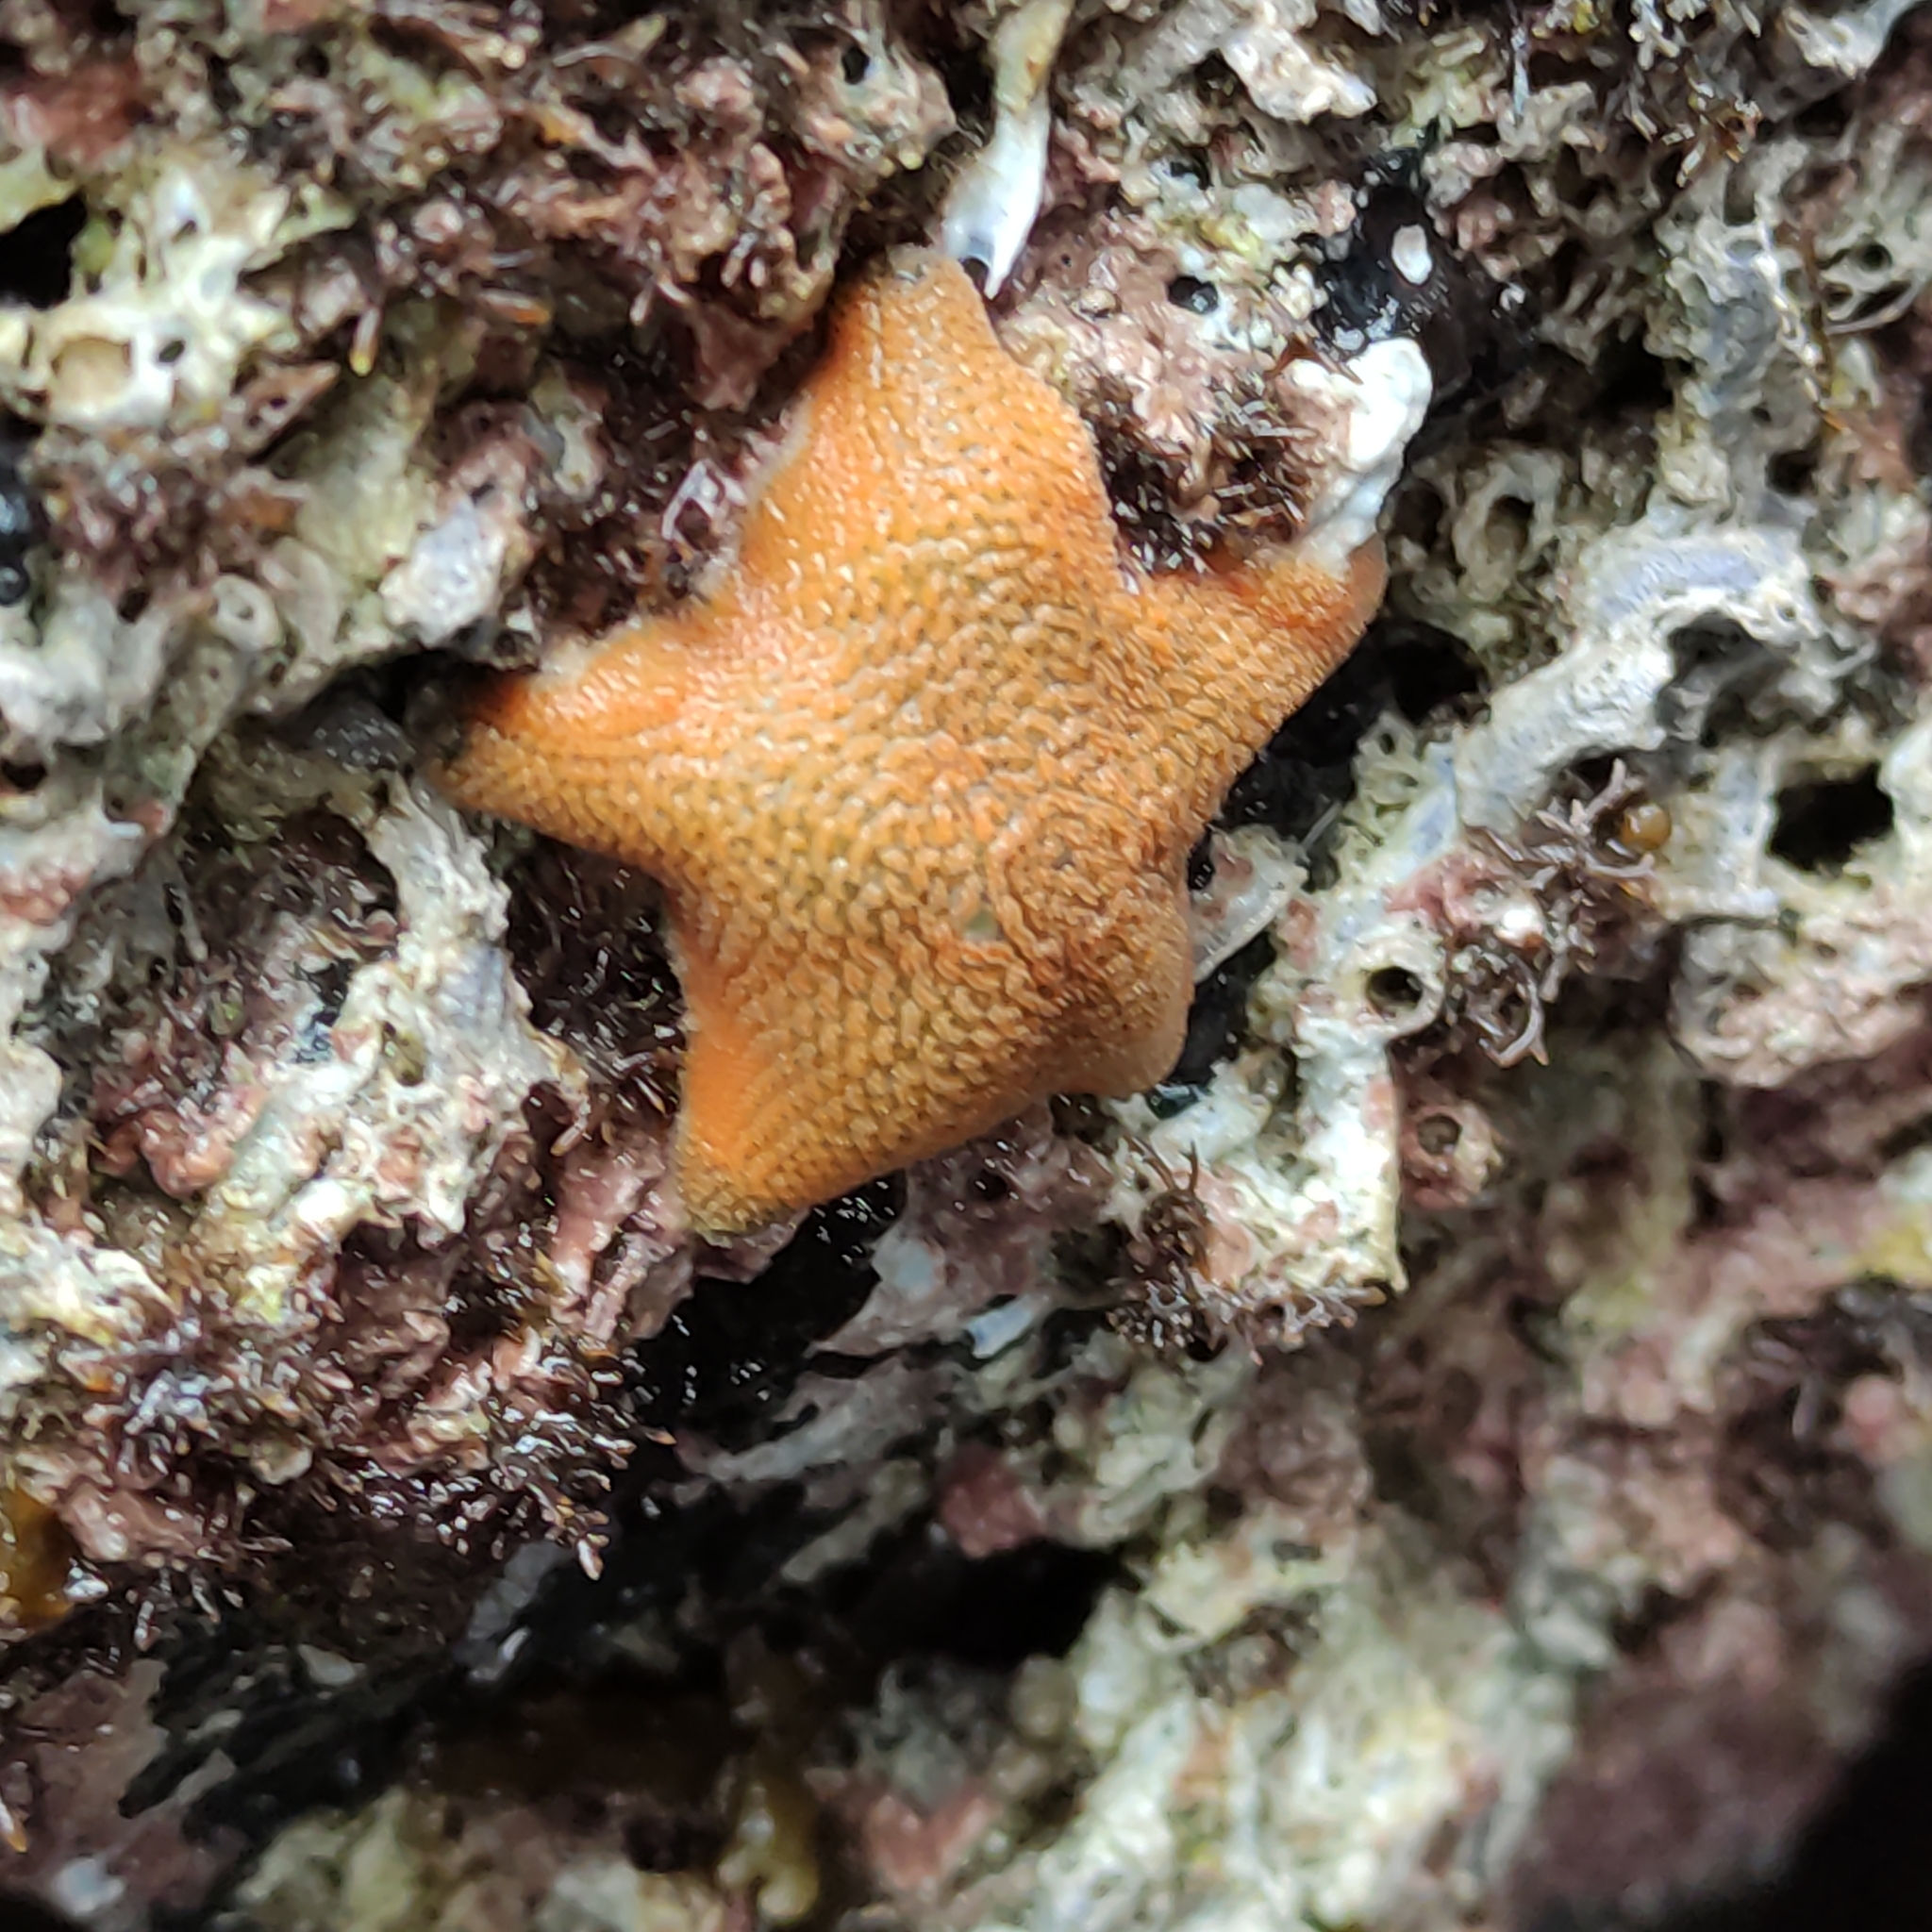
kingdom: Animalia
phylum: Echinodermata
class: Asteroidea
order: Valvatida
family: Asterinidae
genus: Patiriella
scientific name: Patiriella regularis
